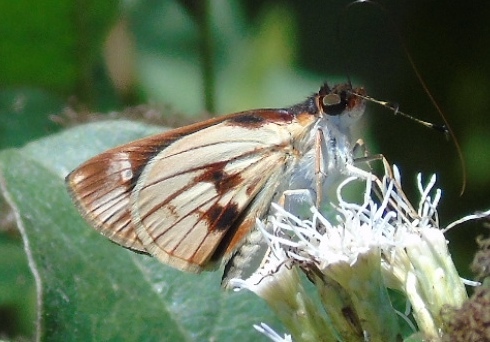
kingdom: Animalia
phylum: Arthropoda
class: Insecta
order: Lepidoptera
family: Hesperiidae
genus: Troyus
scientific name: Troyus fantasos
